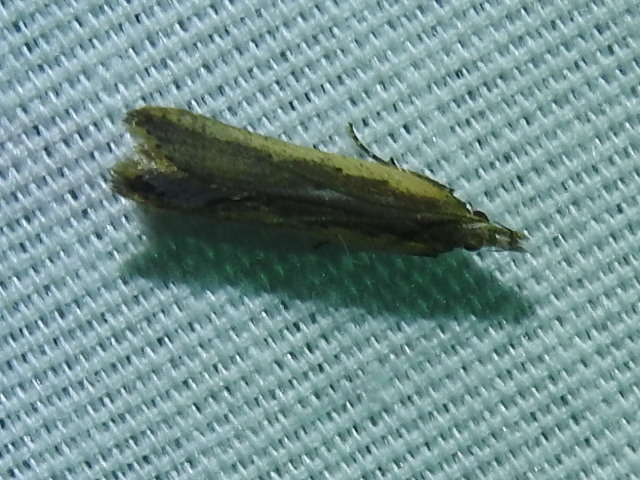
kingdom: Animalia
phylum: Arthropoda
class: Insecta
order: Lepidoptera
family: Gelechiidae
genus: Dichomeris
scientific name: Dichomeris ligulella
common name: Moth
